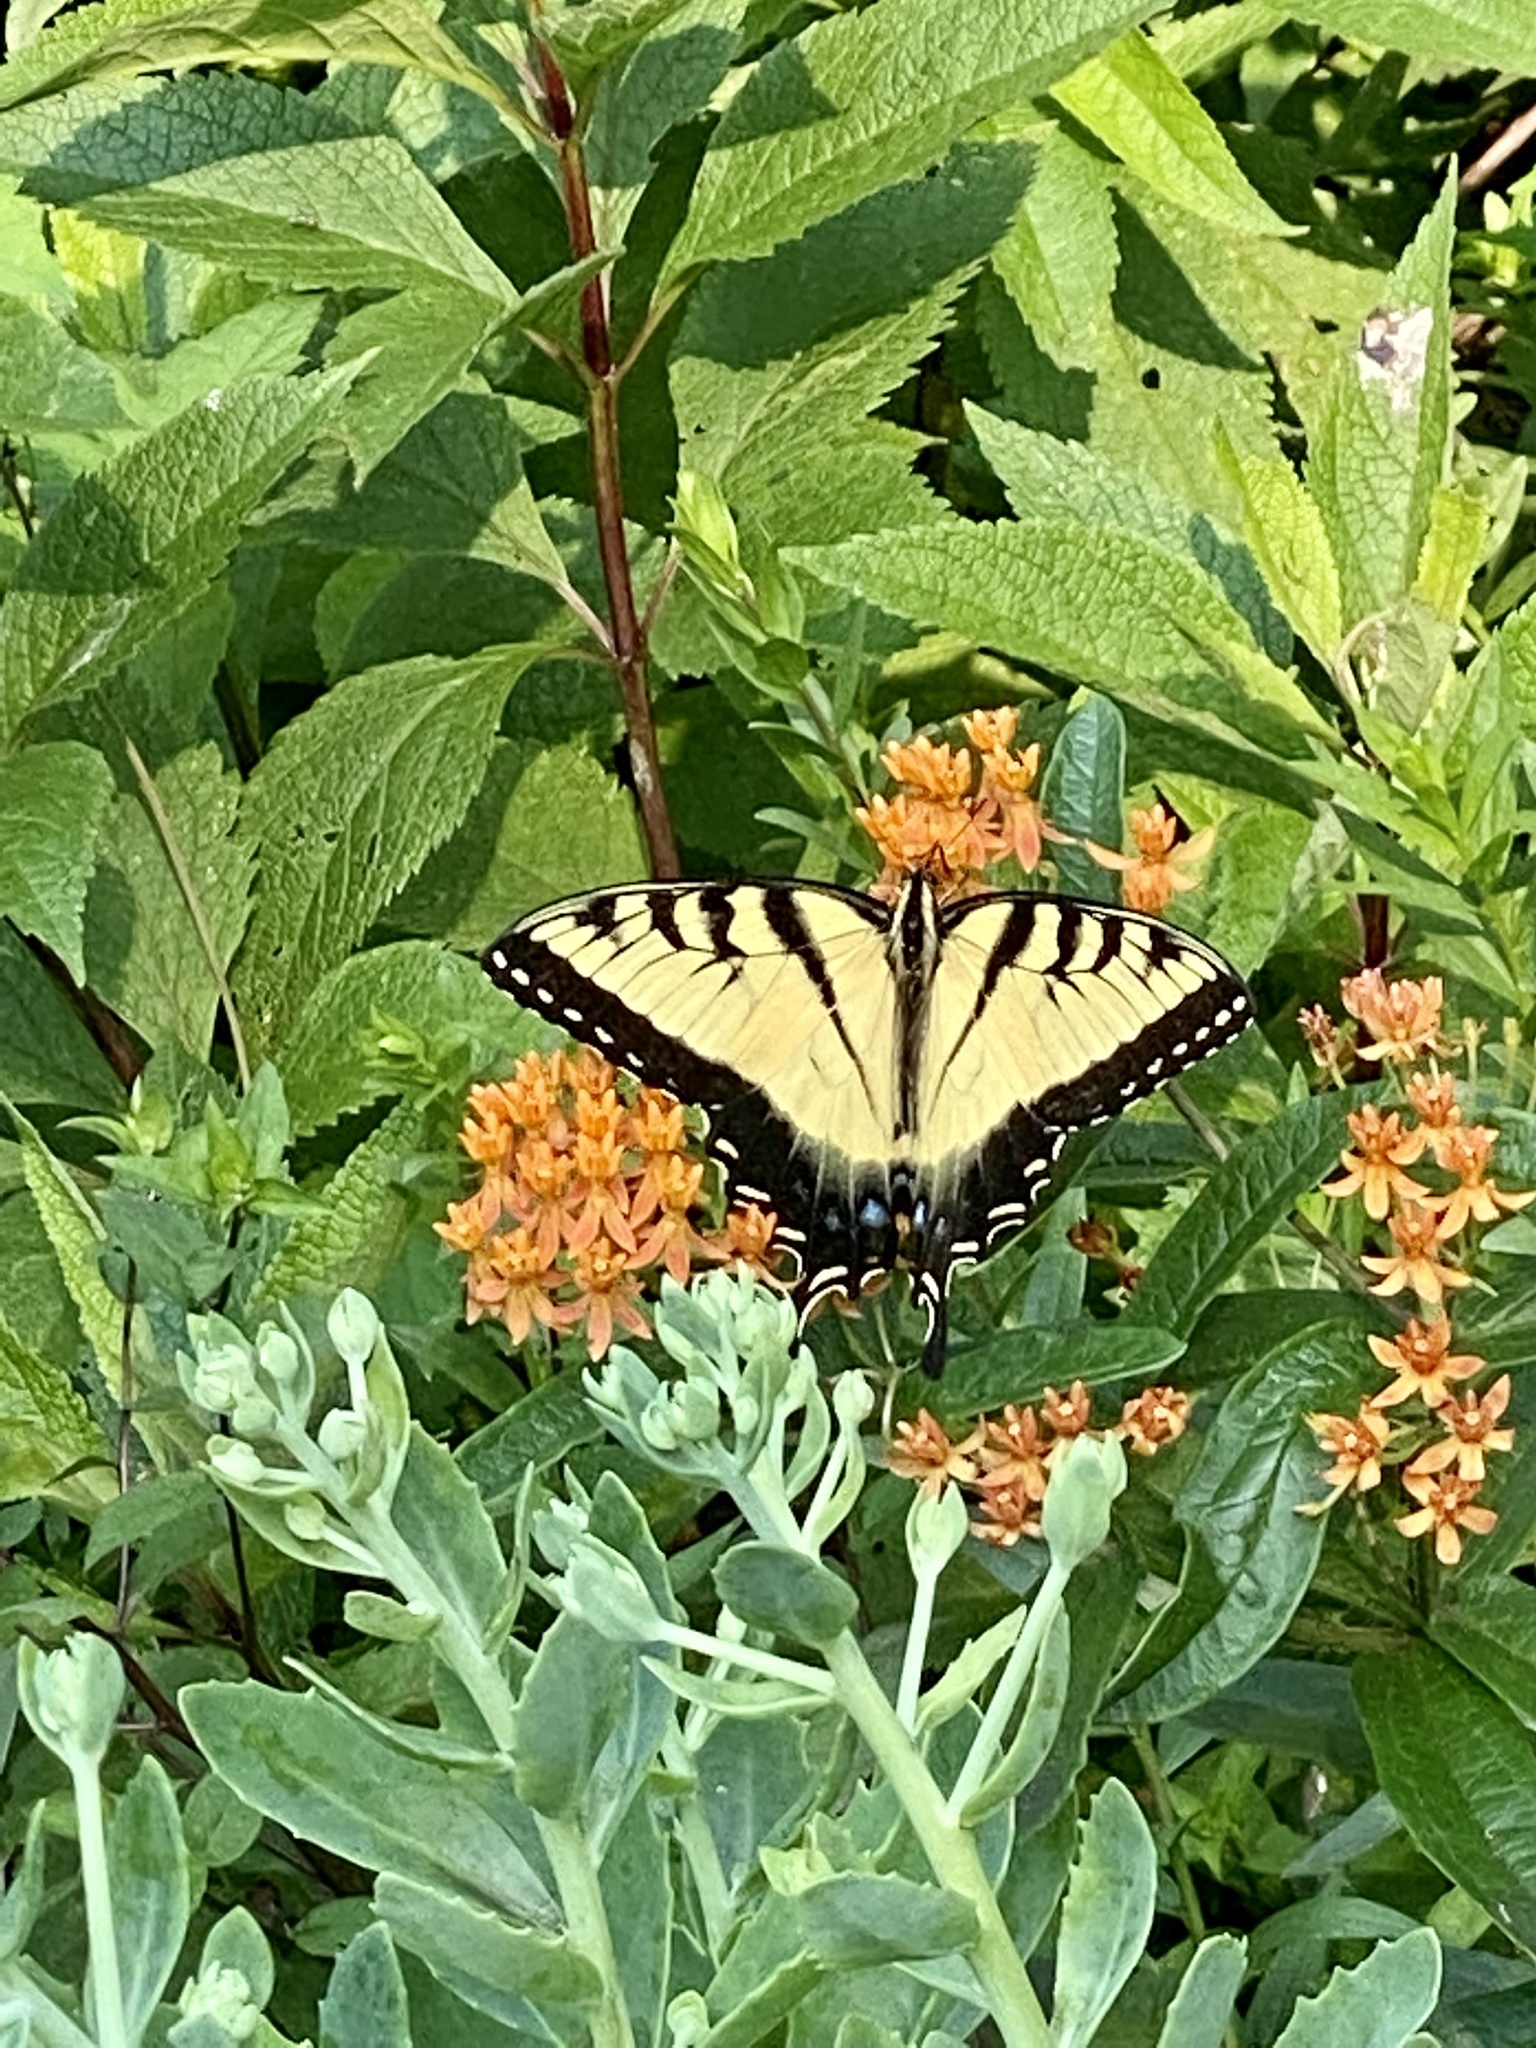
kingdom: Animalia
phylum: Arthropoda
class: Insecta
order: Lepidoptera
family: Papilionidae
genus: Papilio
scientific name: Papilio glaucus
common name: Tiger swallowtail
